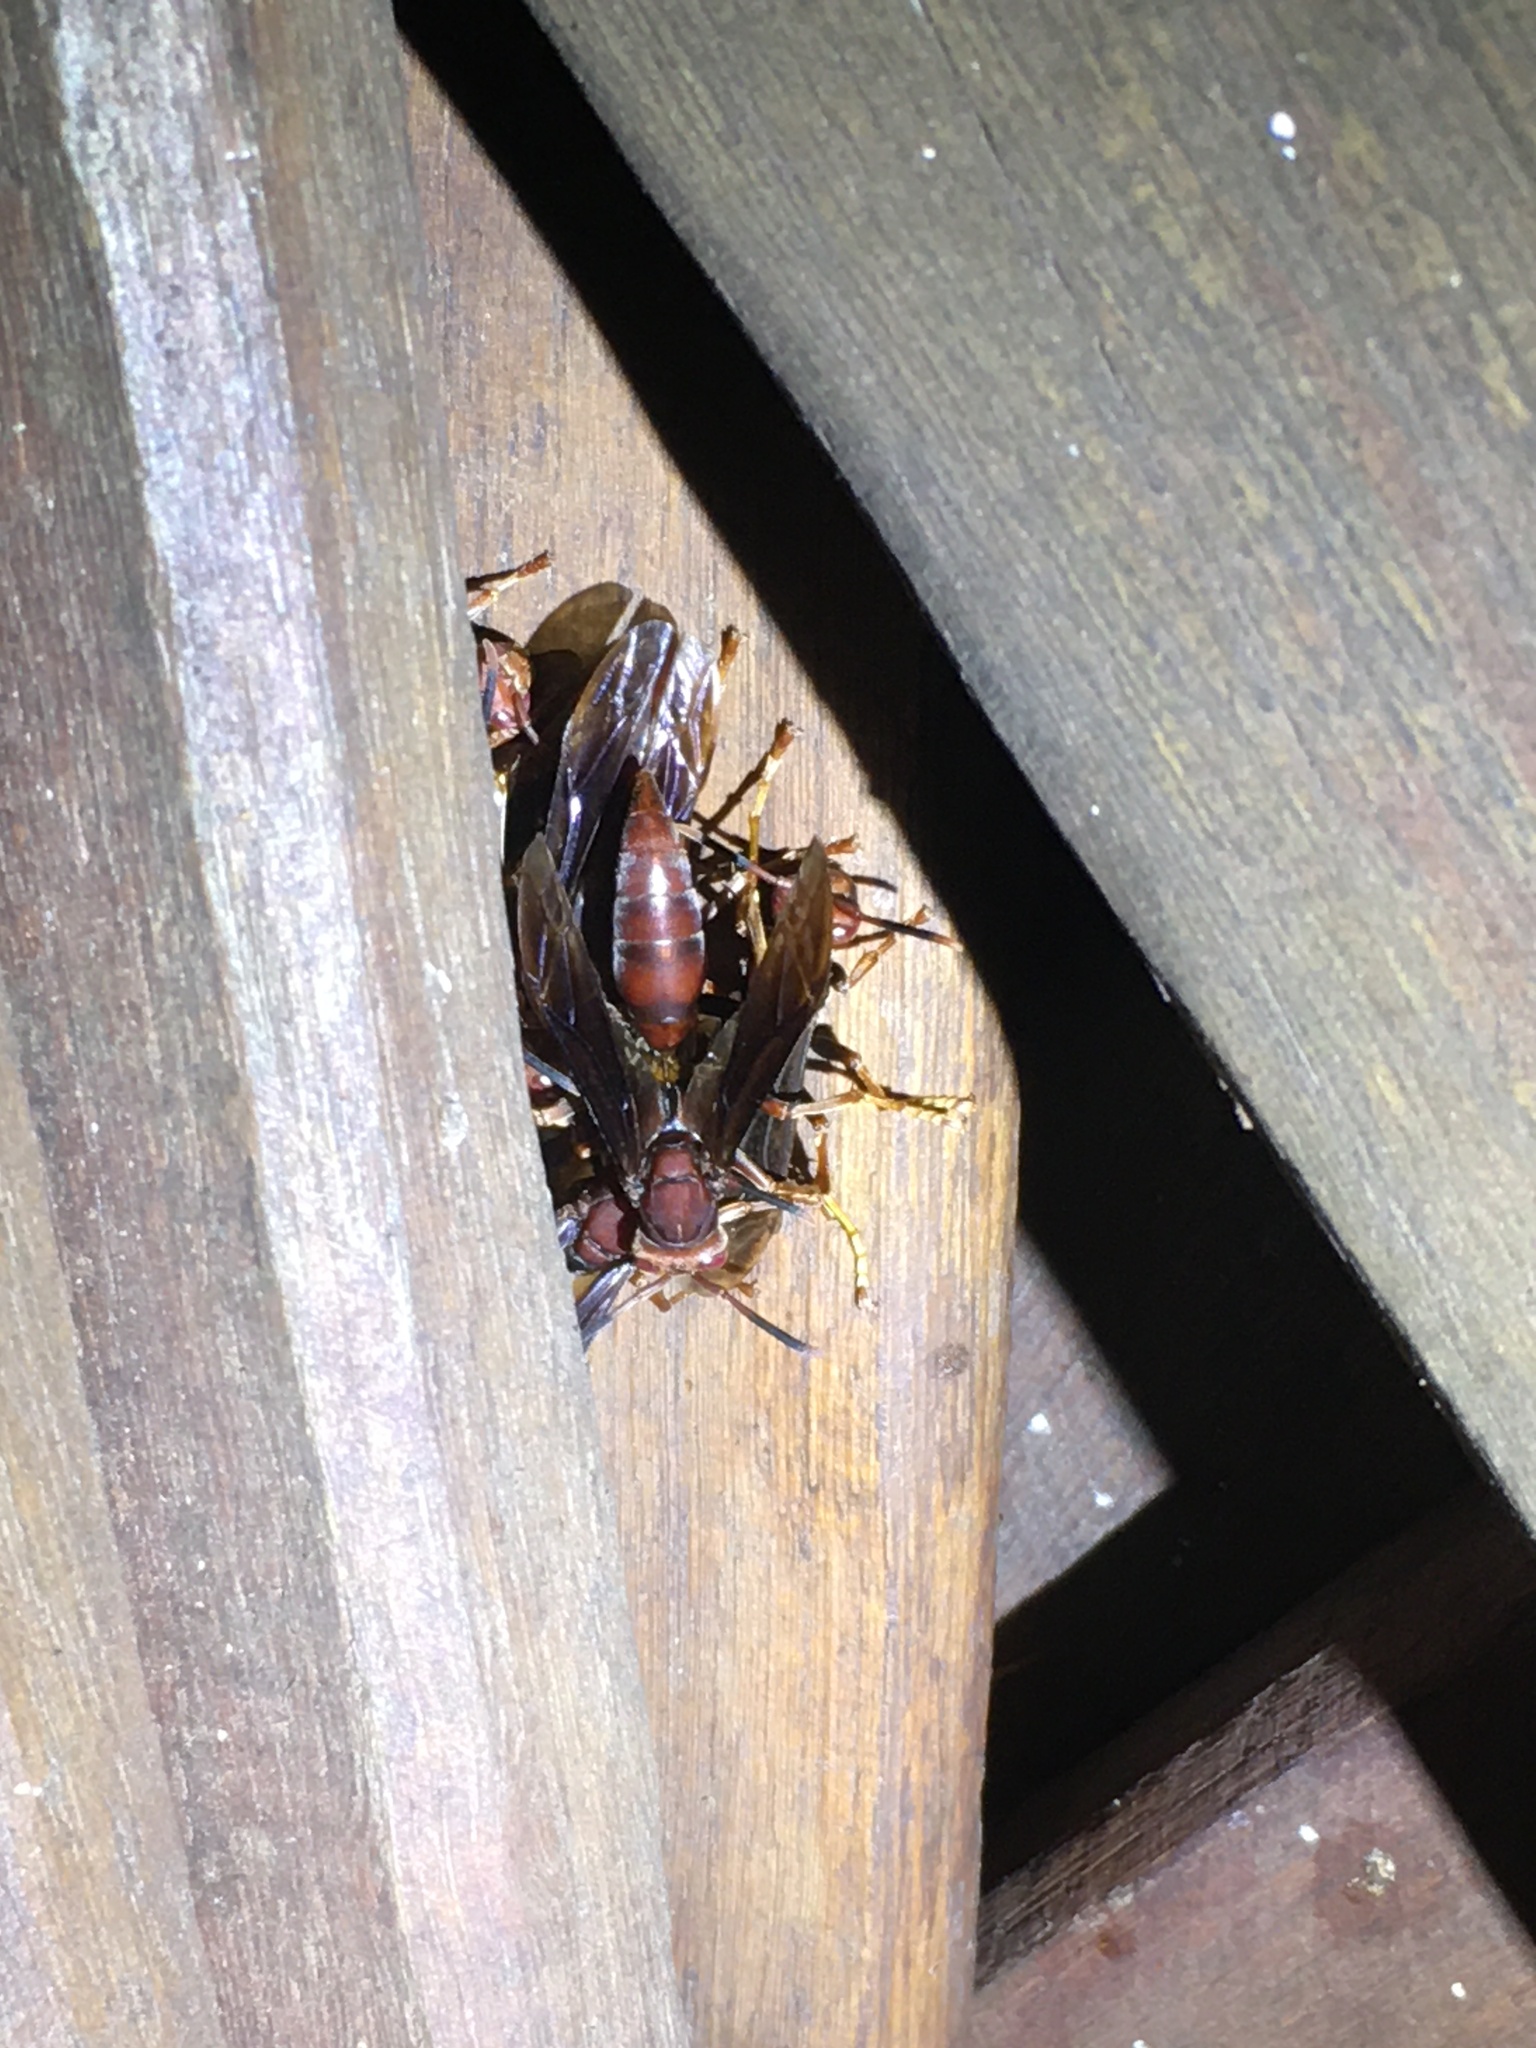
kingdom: Animalia
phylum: Arthropoda
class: Insecta
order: Hymenoptera
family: Pompilidae
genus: Aphanilopterus
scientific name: Aphanilopterus
